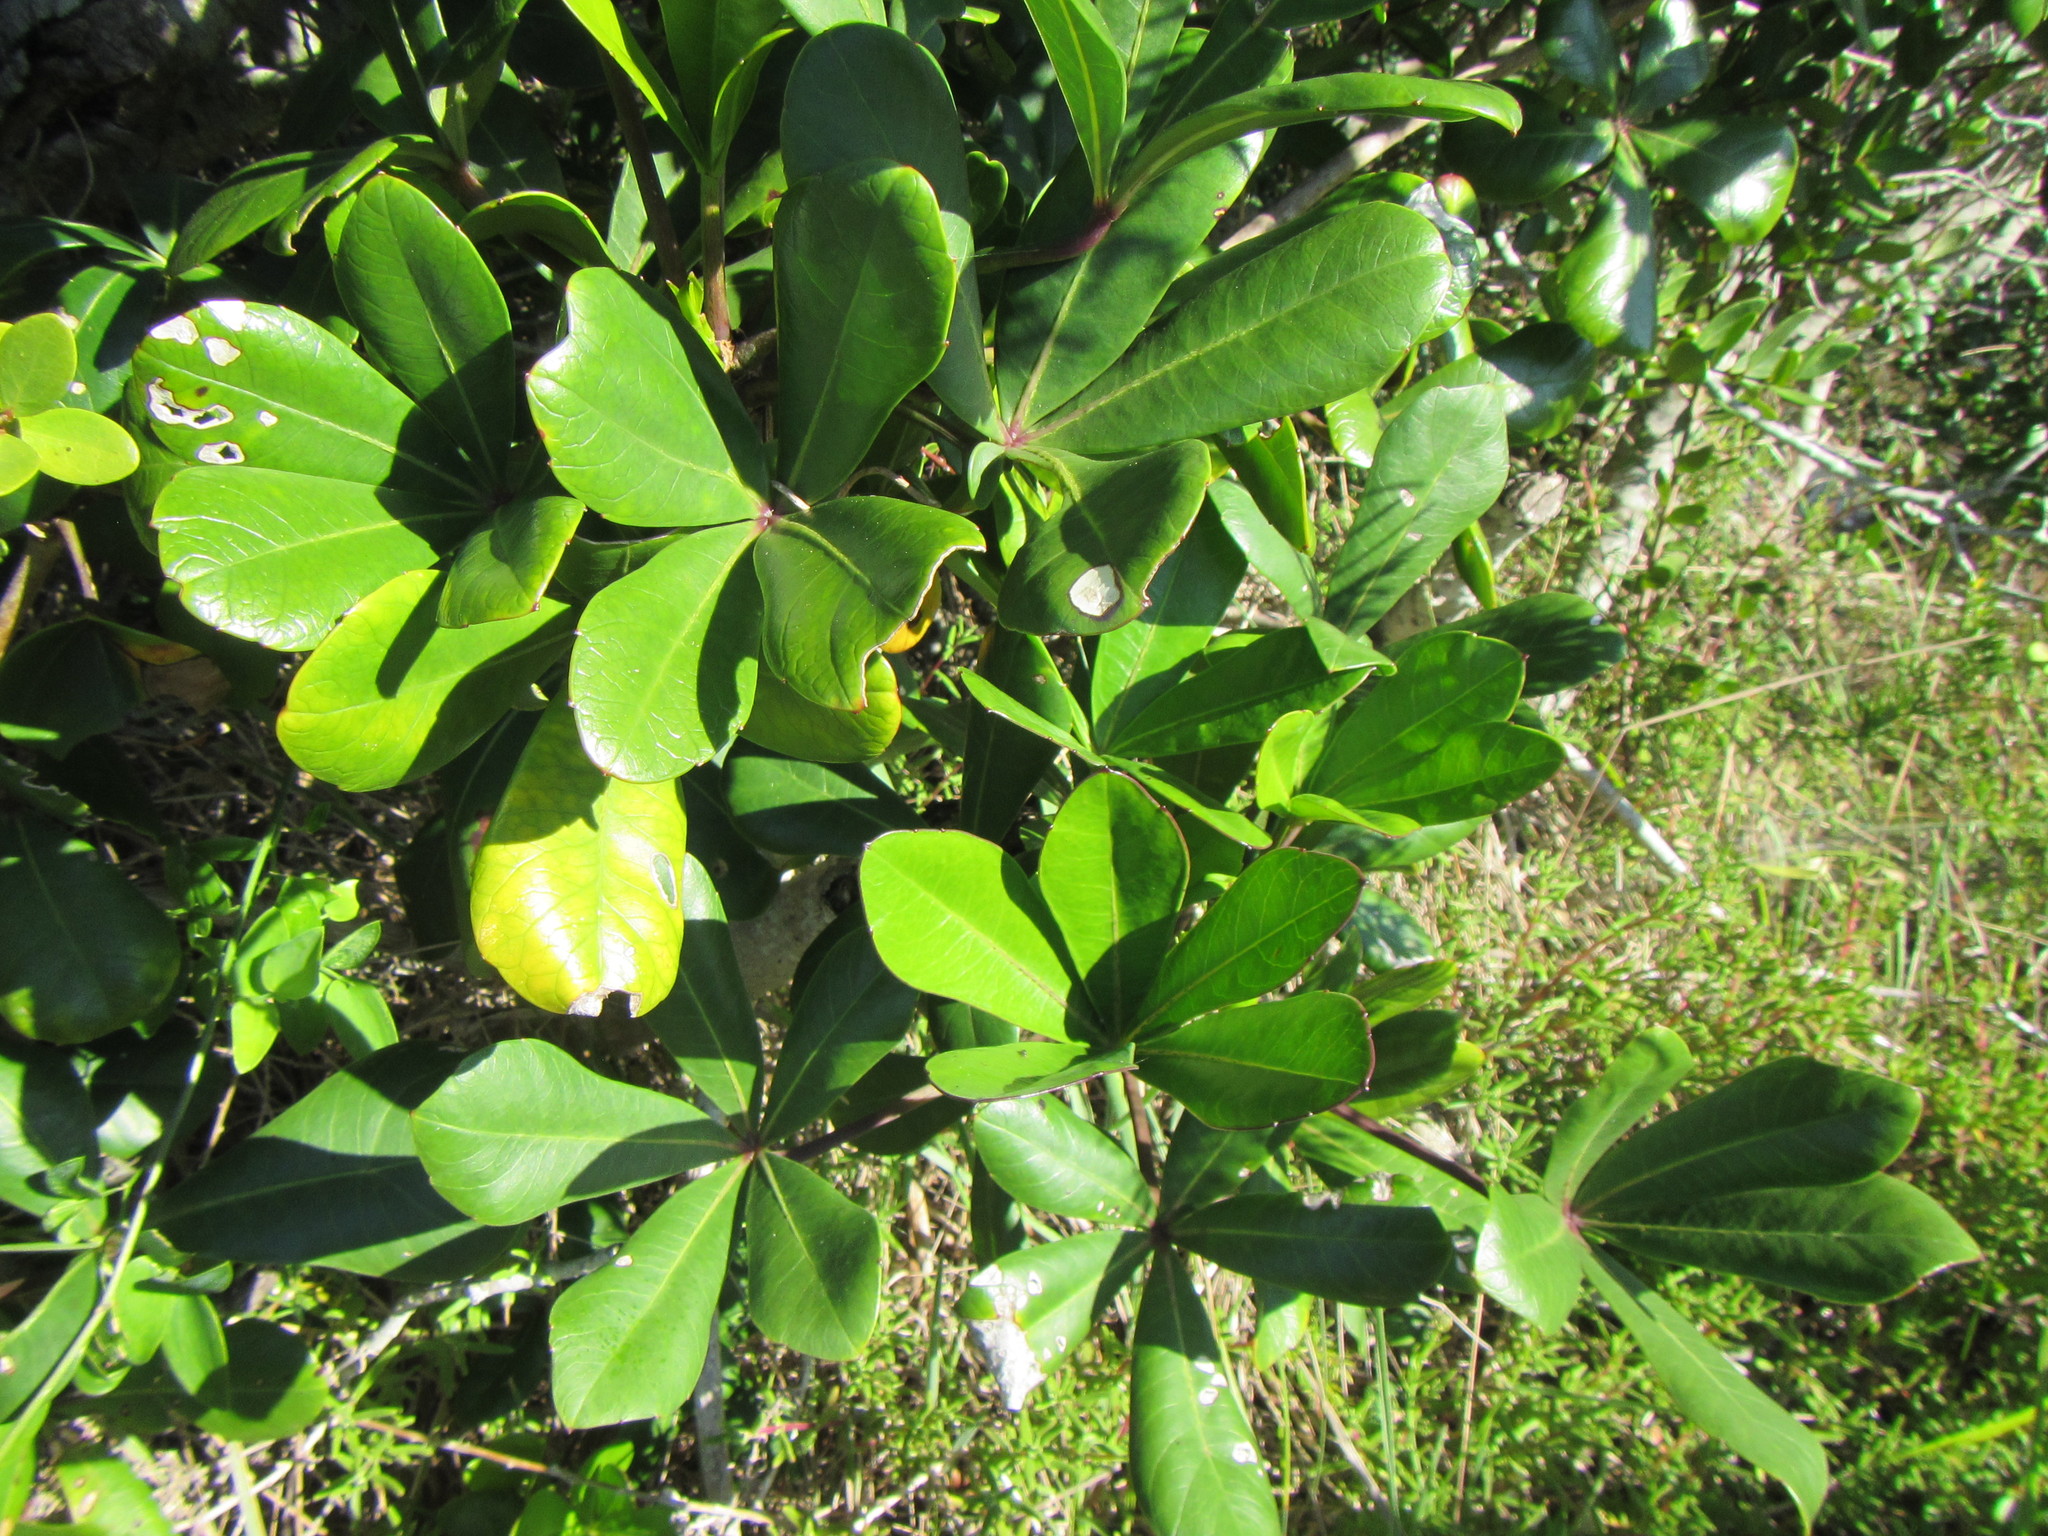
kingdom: Plantae
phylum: Tracheophyta
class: Magnoliopsida
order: Apiales
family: Araliaceae
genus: Cussonia
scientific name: Cussonia thyrsiflora
